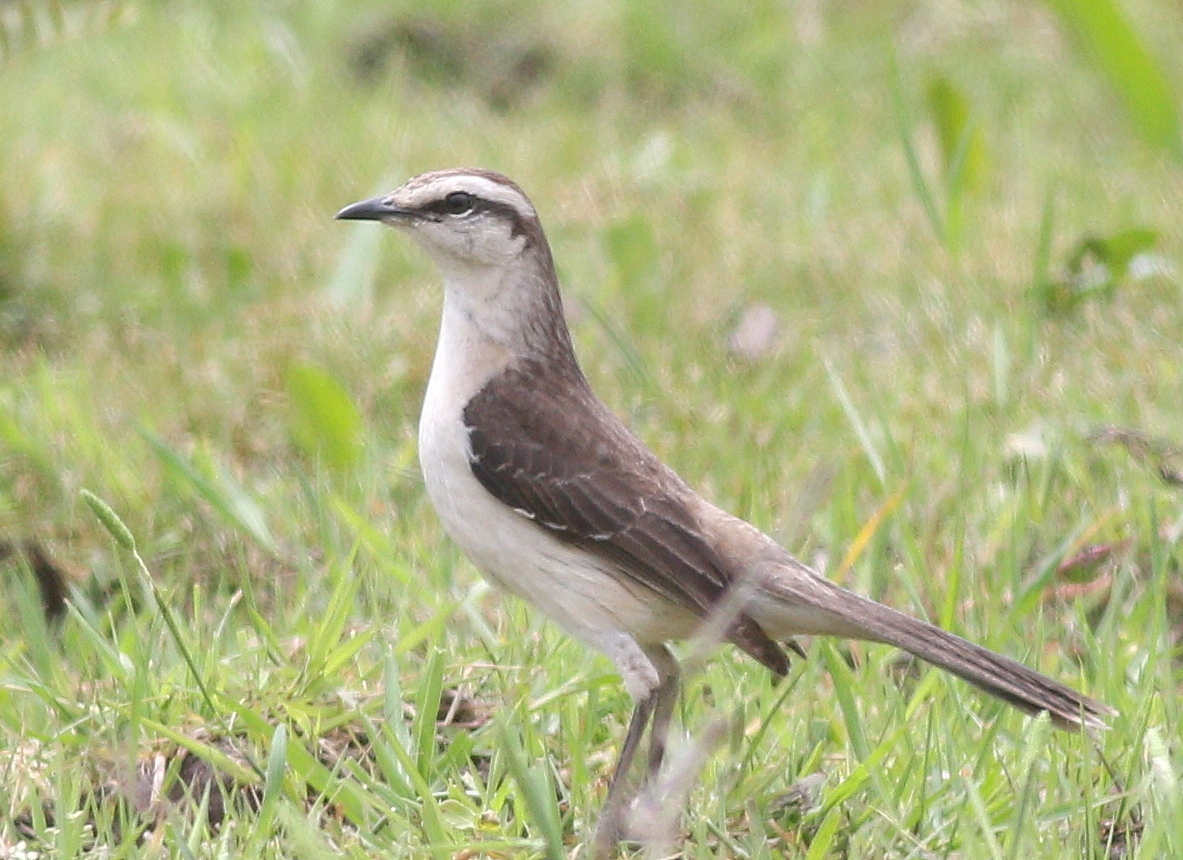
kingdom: Animalia
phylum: Chordata
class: Aves
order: Passeriformes
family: Mimidae
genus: Mimus
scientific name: Mimus saturninus
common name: Chalk-browed mockingbird
